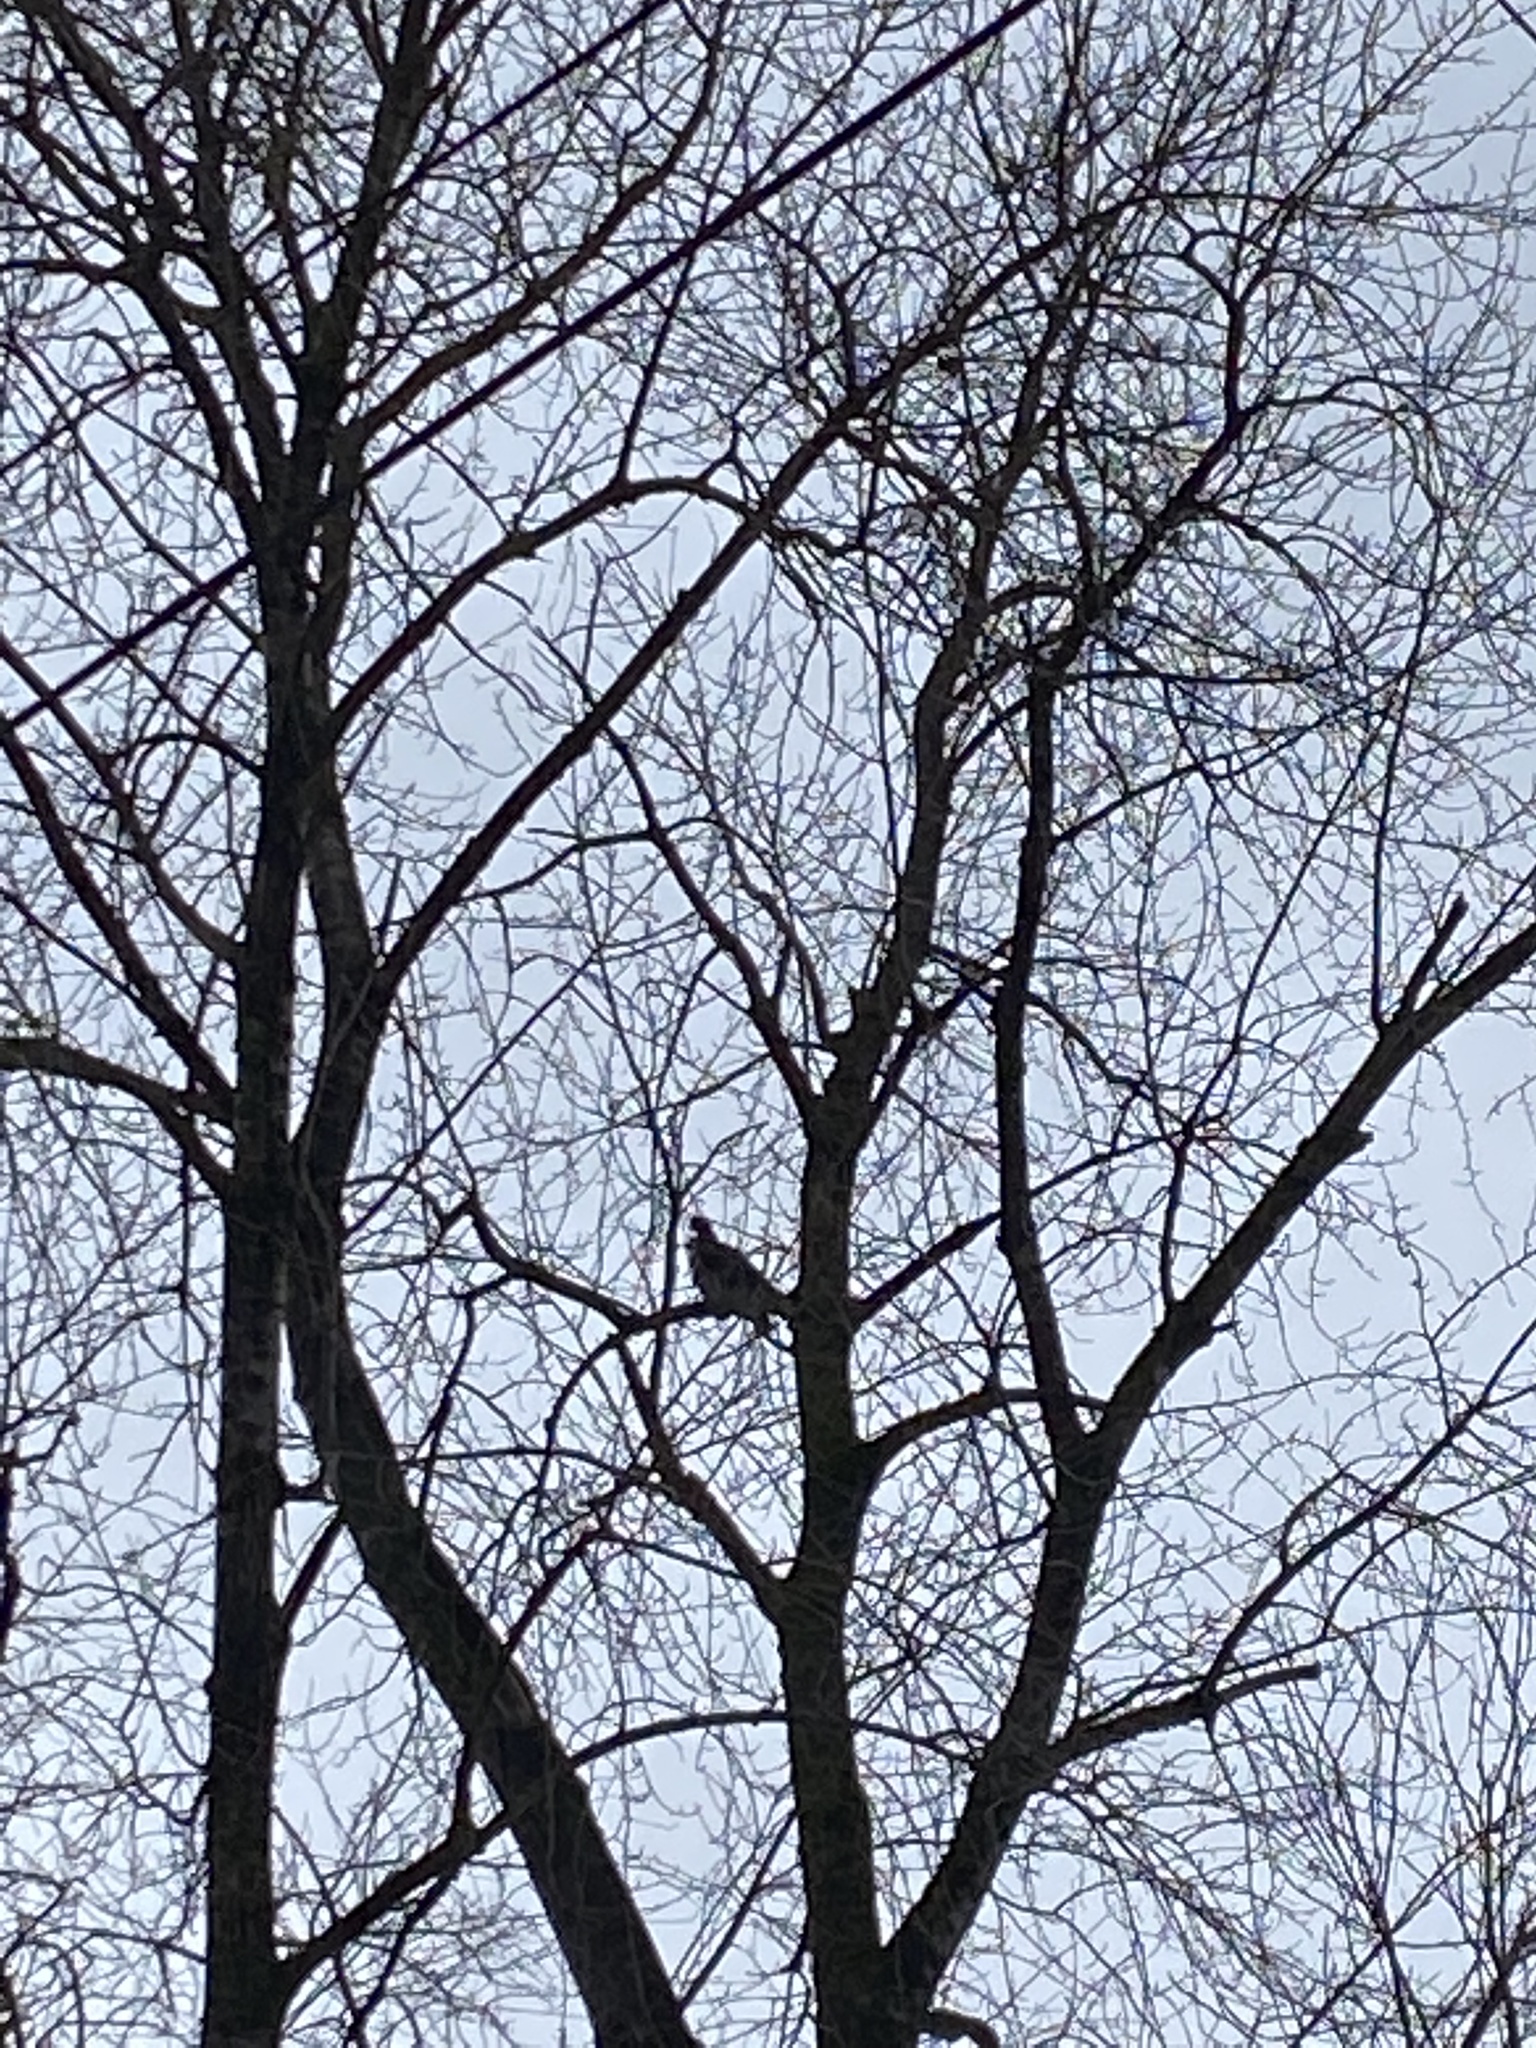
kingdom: Animalia
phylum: Chordata
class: Aves
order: Accipitriformes
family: Accipitridae
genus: Haliaeetus
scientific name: Haliaeetus leucocephalus
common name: Bald eagle
